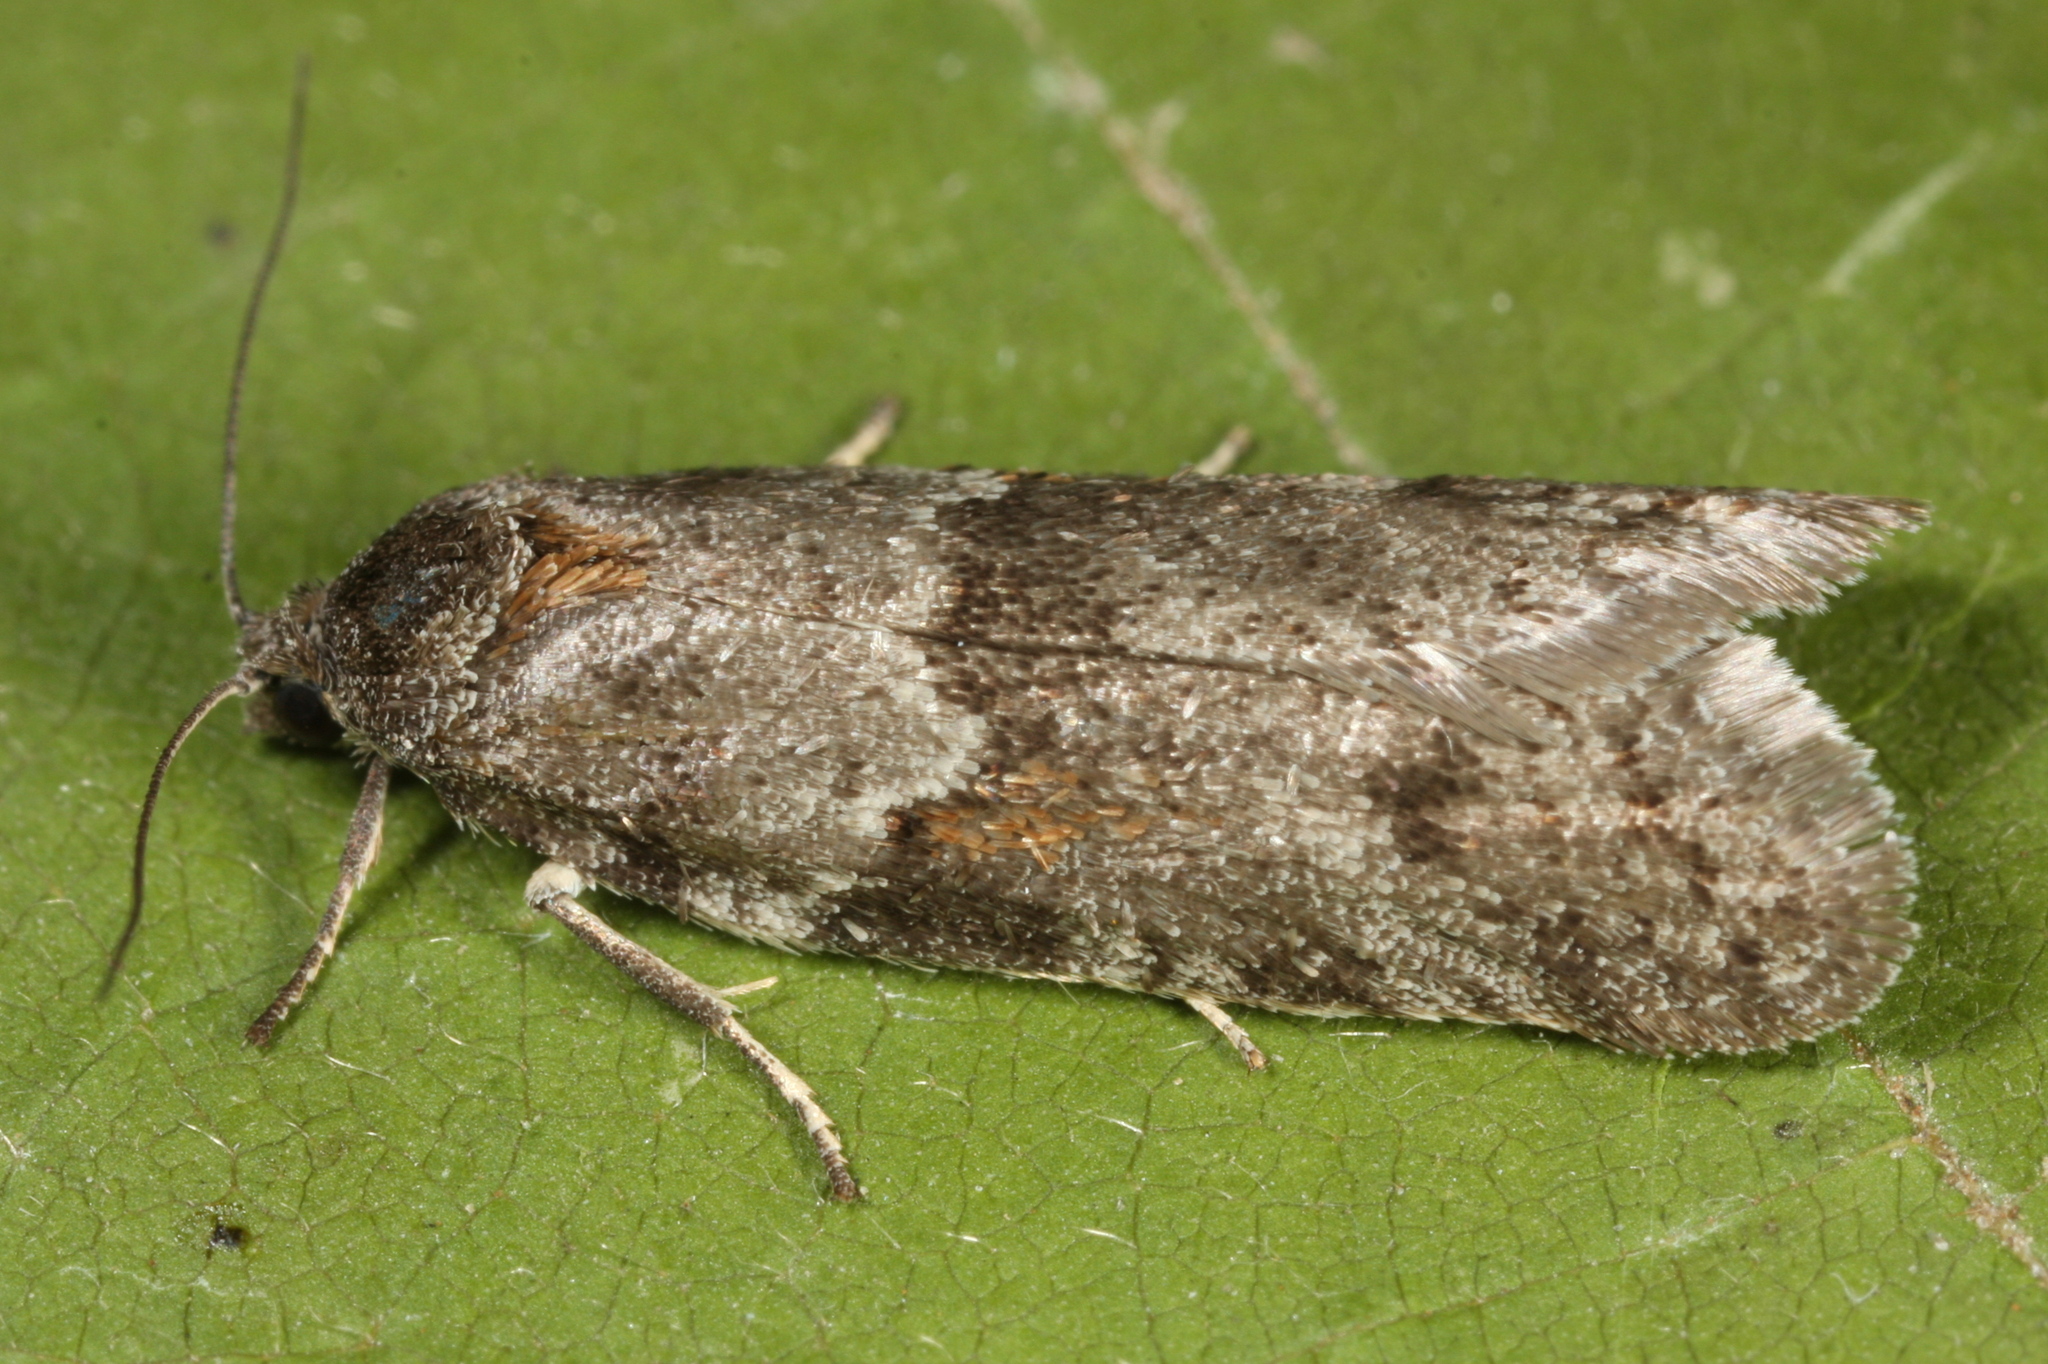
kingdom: Animalia
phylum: Arthropoda
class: Insecta
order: Lepidoptera
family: Tortricidae
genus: Tortricodes
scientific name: Tortricodes alternella
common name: Winter shade
